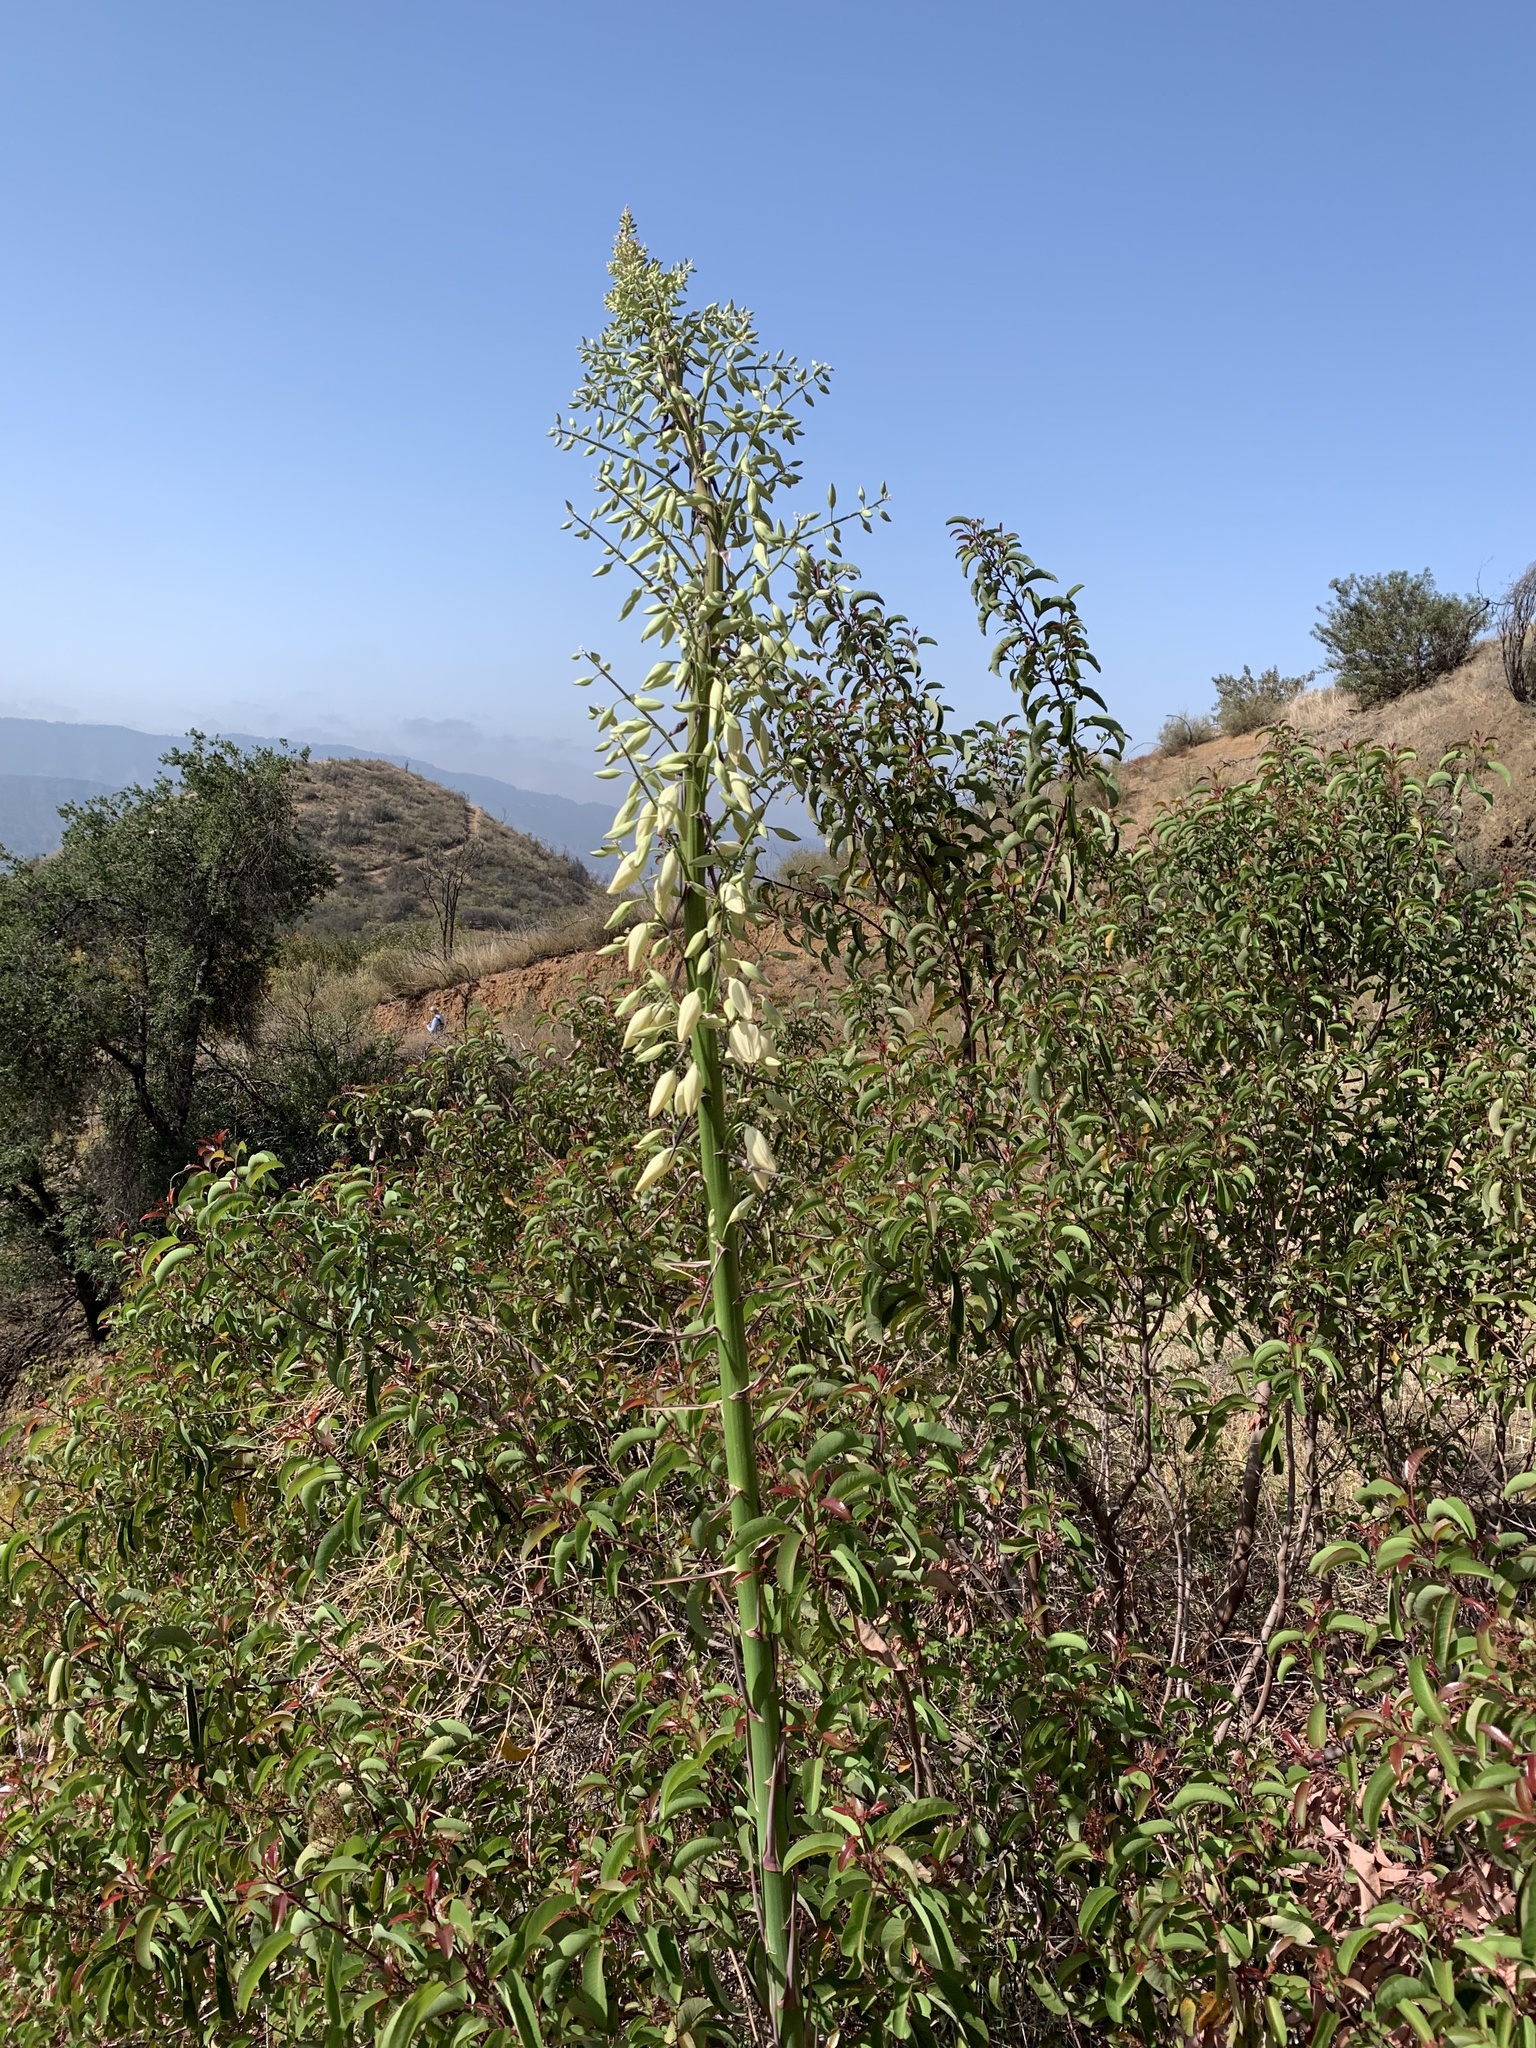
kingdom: Plantae
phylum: Tracheophyta
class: Liliopsida
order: Asparagales
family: Asparagaceae
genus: Hesperoyucca
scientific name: Hesperoyucca whipplei
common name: Our lord's-candle
